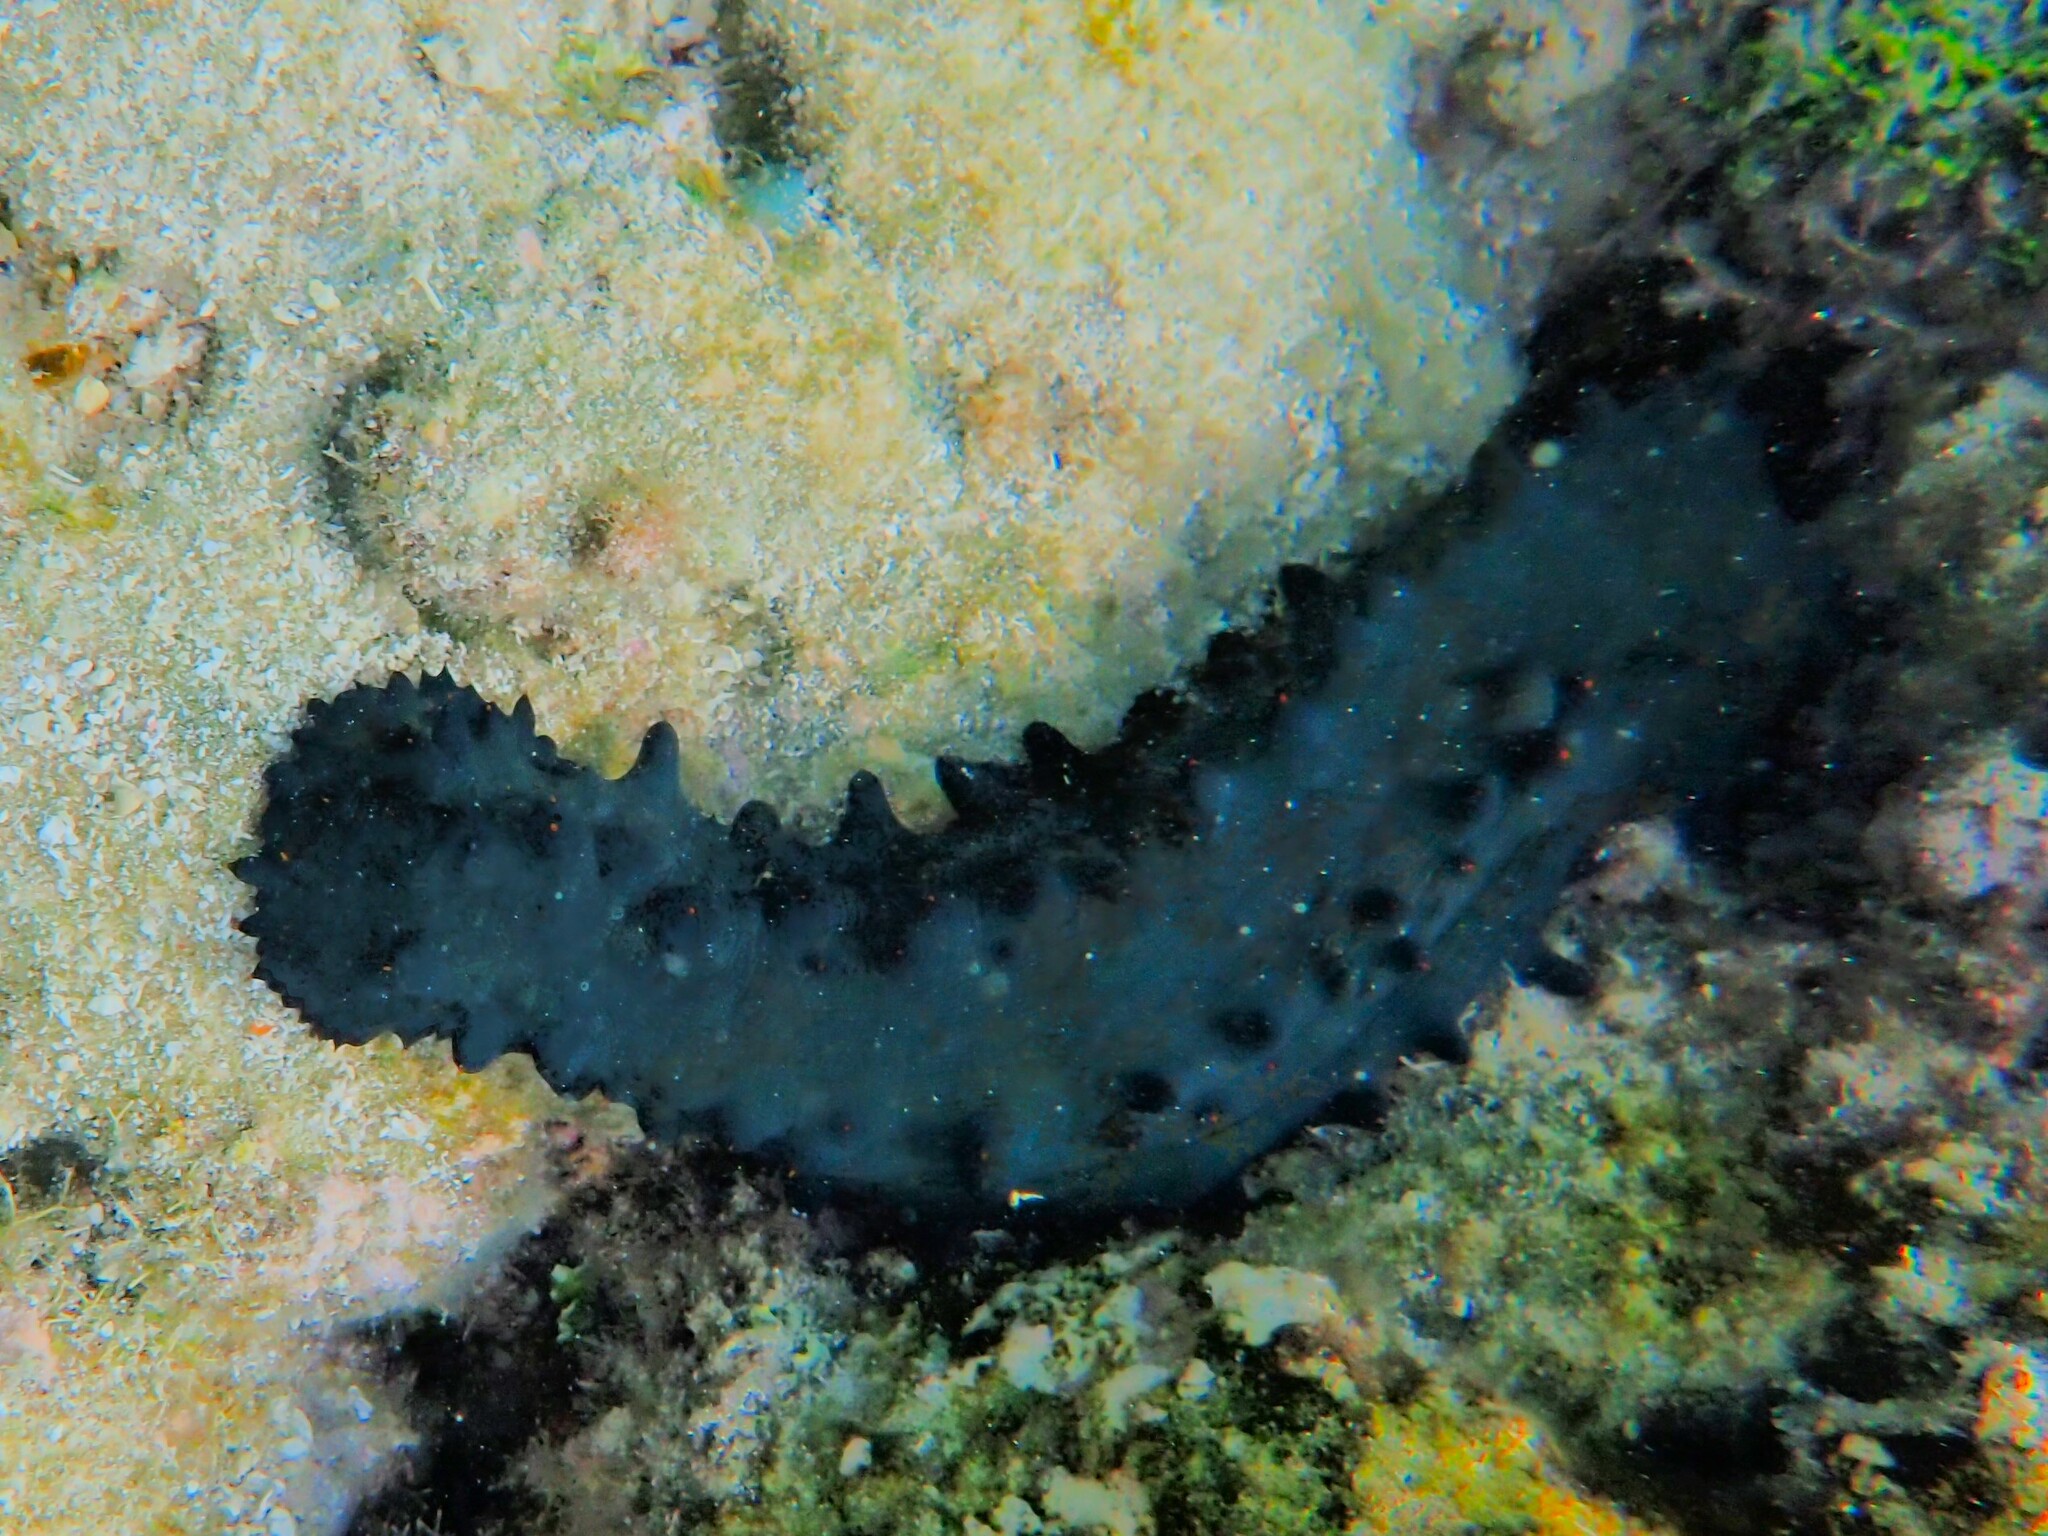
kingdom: Animalia
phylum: Echinodermata
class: Holothuroidea
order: Synallactida
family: Stichopodidae
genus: Stichopus
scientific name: Stichopus chloronotus
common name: Greenfish
